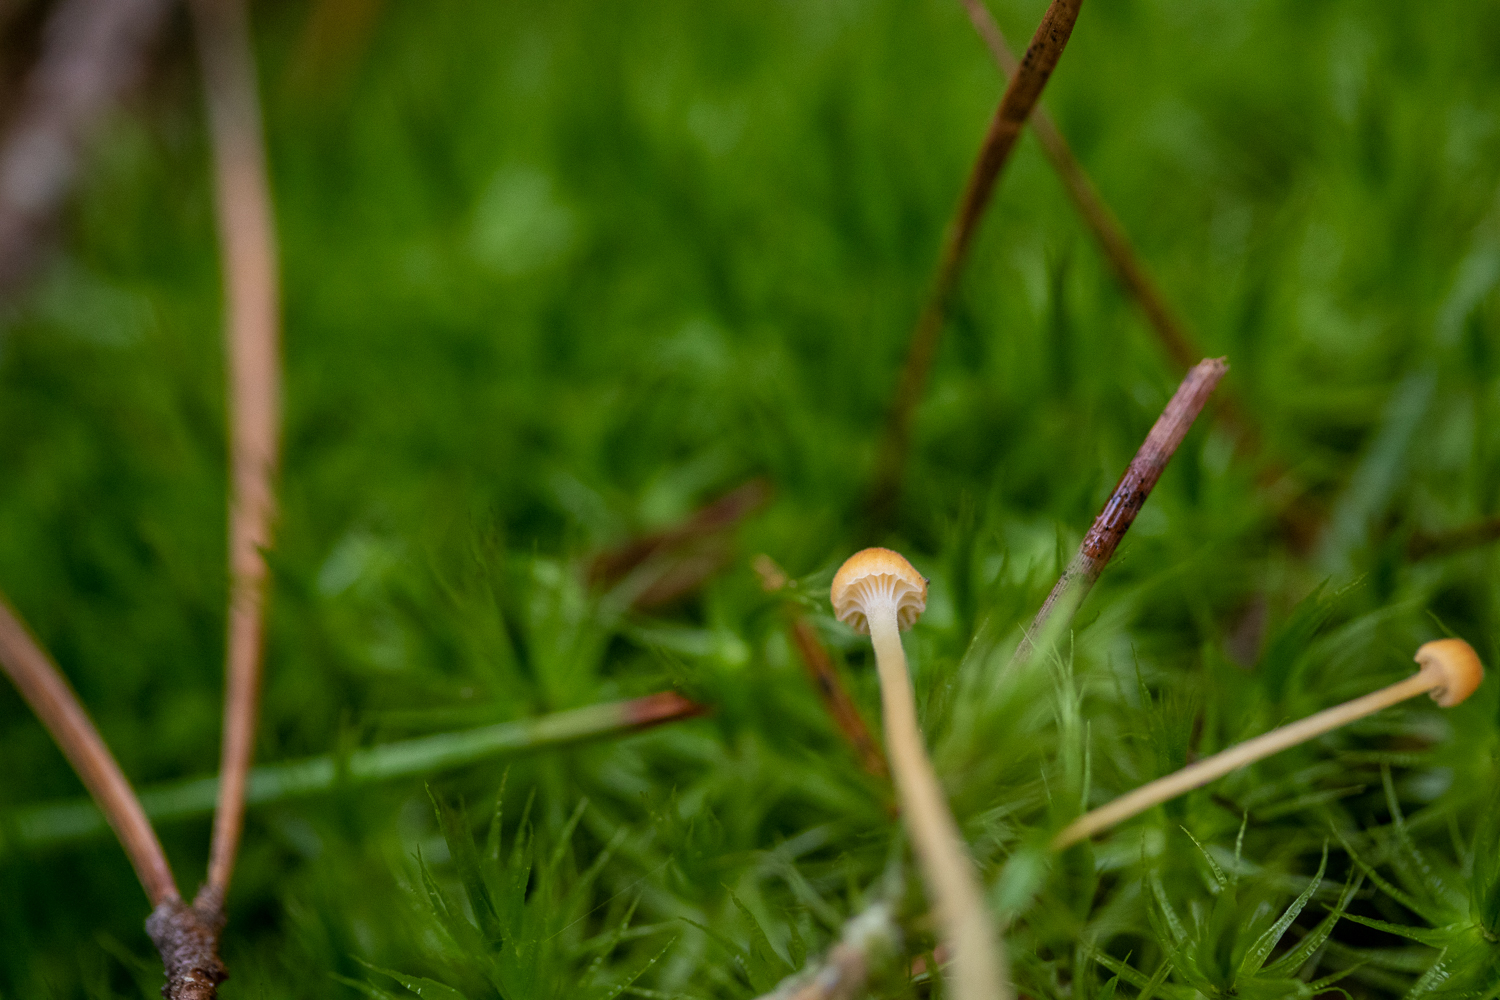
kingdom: Fungi
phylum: Basidiomycota
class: Agaricomycetes
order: Hymenochaetales
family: Rickenellaceae
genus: Rickenella
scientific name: Rickenella fibula
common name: Orange mosscap
